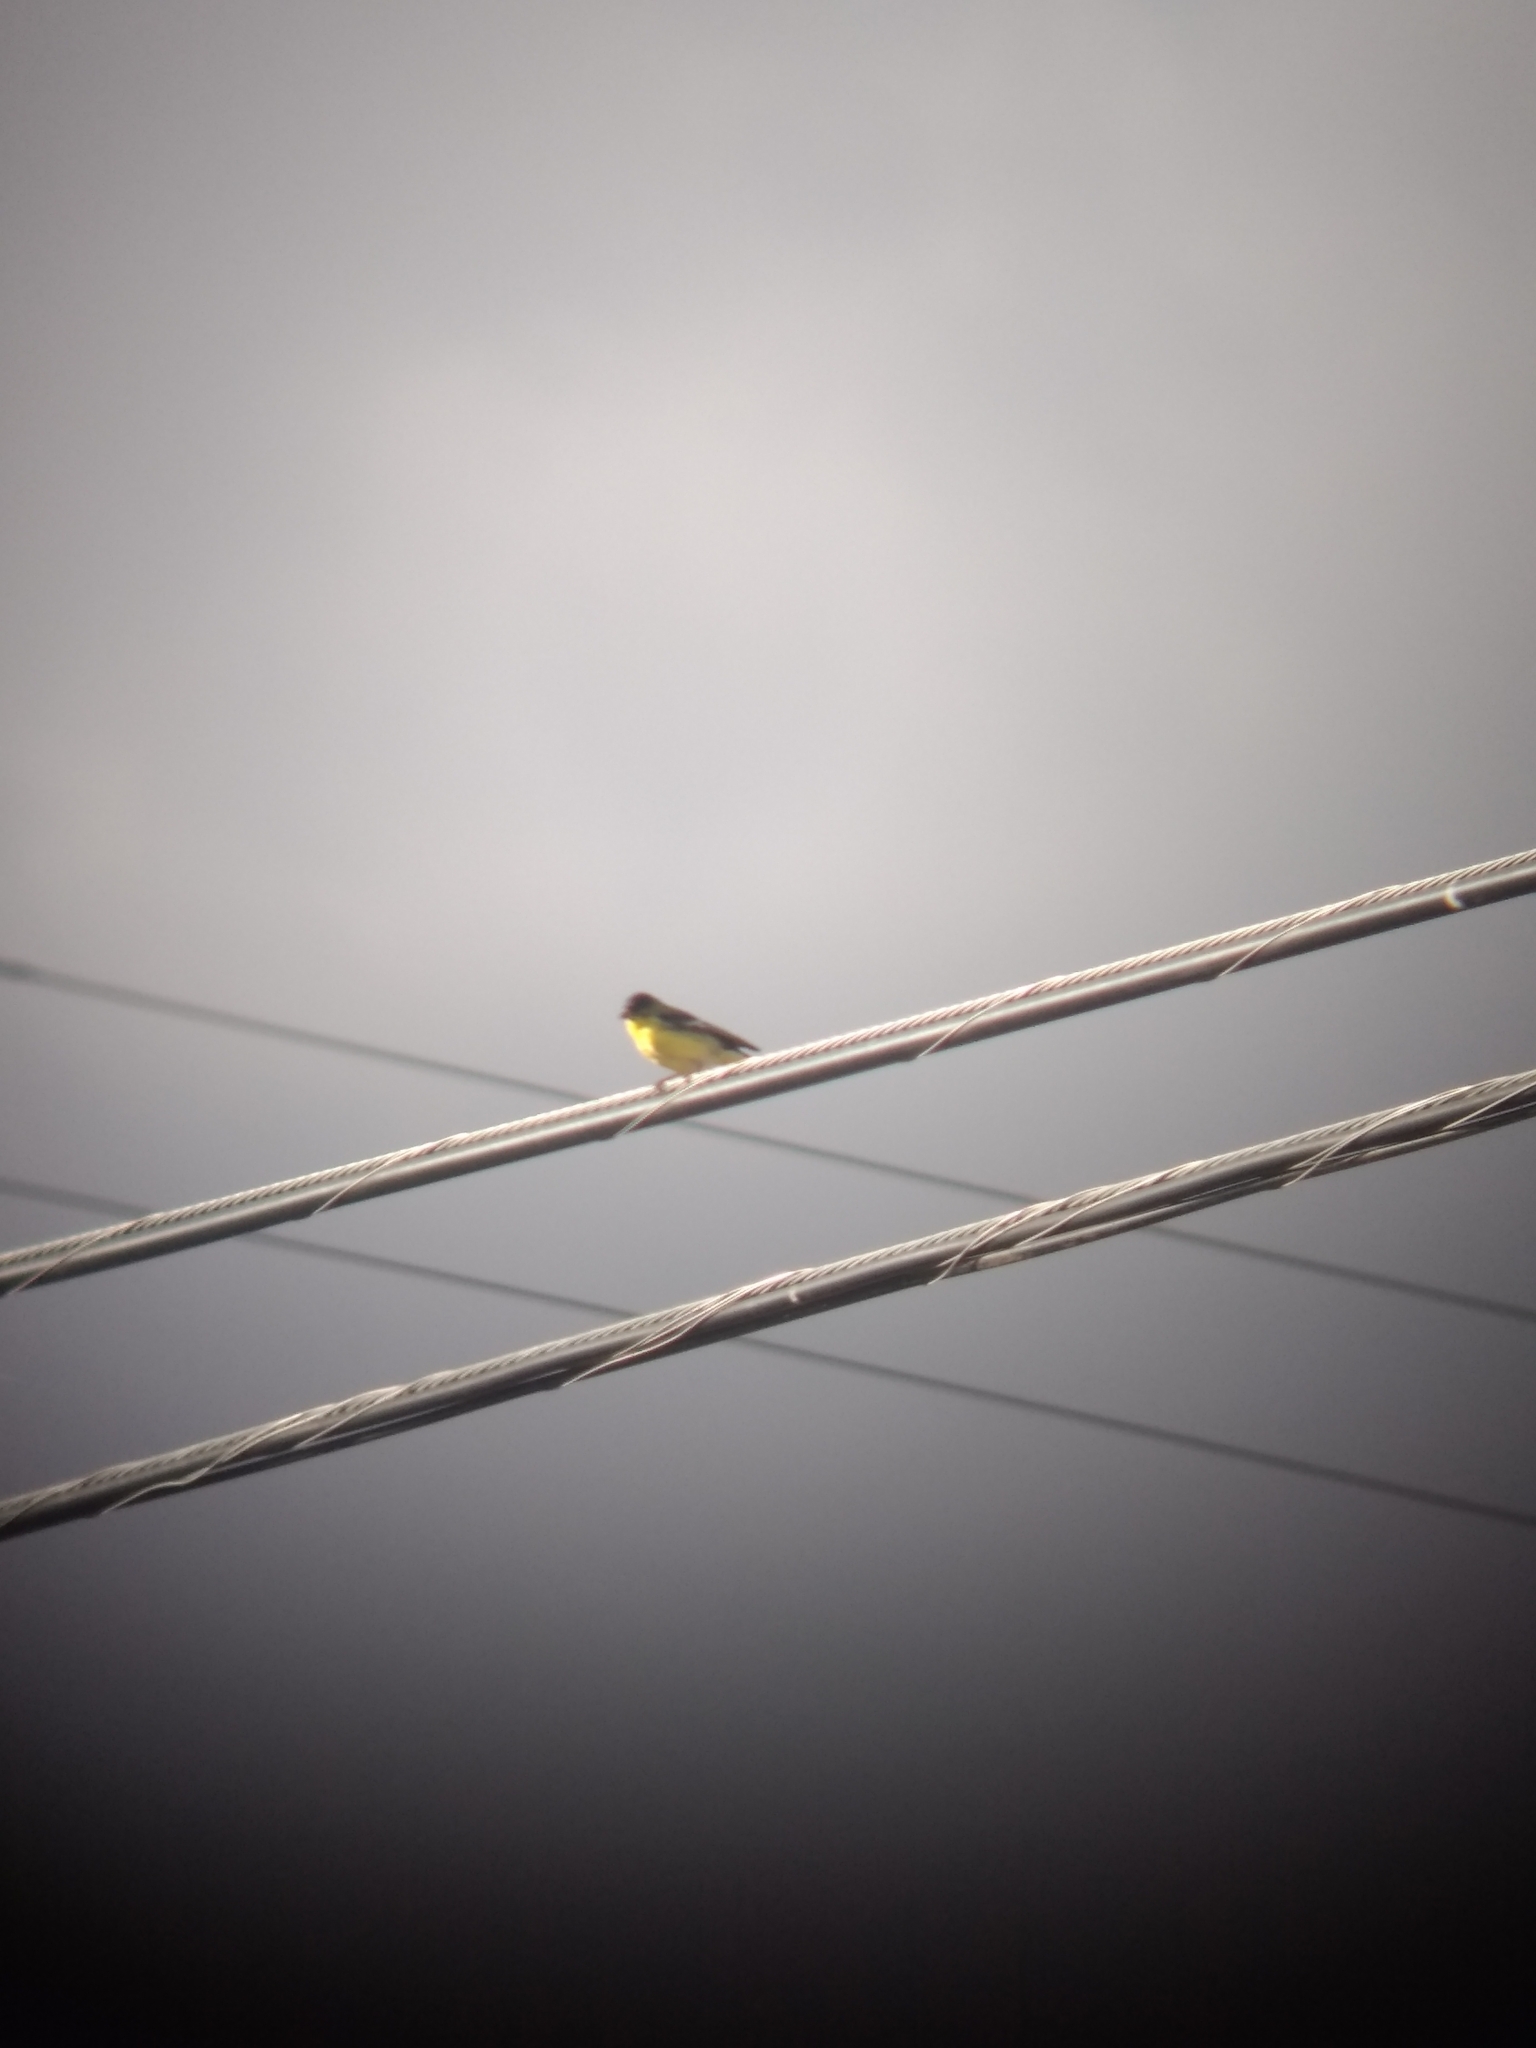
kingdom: Animalia
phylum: Chordata
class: Aves
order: Passeriformes
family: Fringillidae
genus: Spinus
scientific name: Spinus psaltria
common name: Lesser goldfinch
